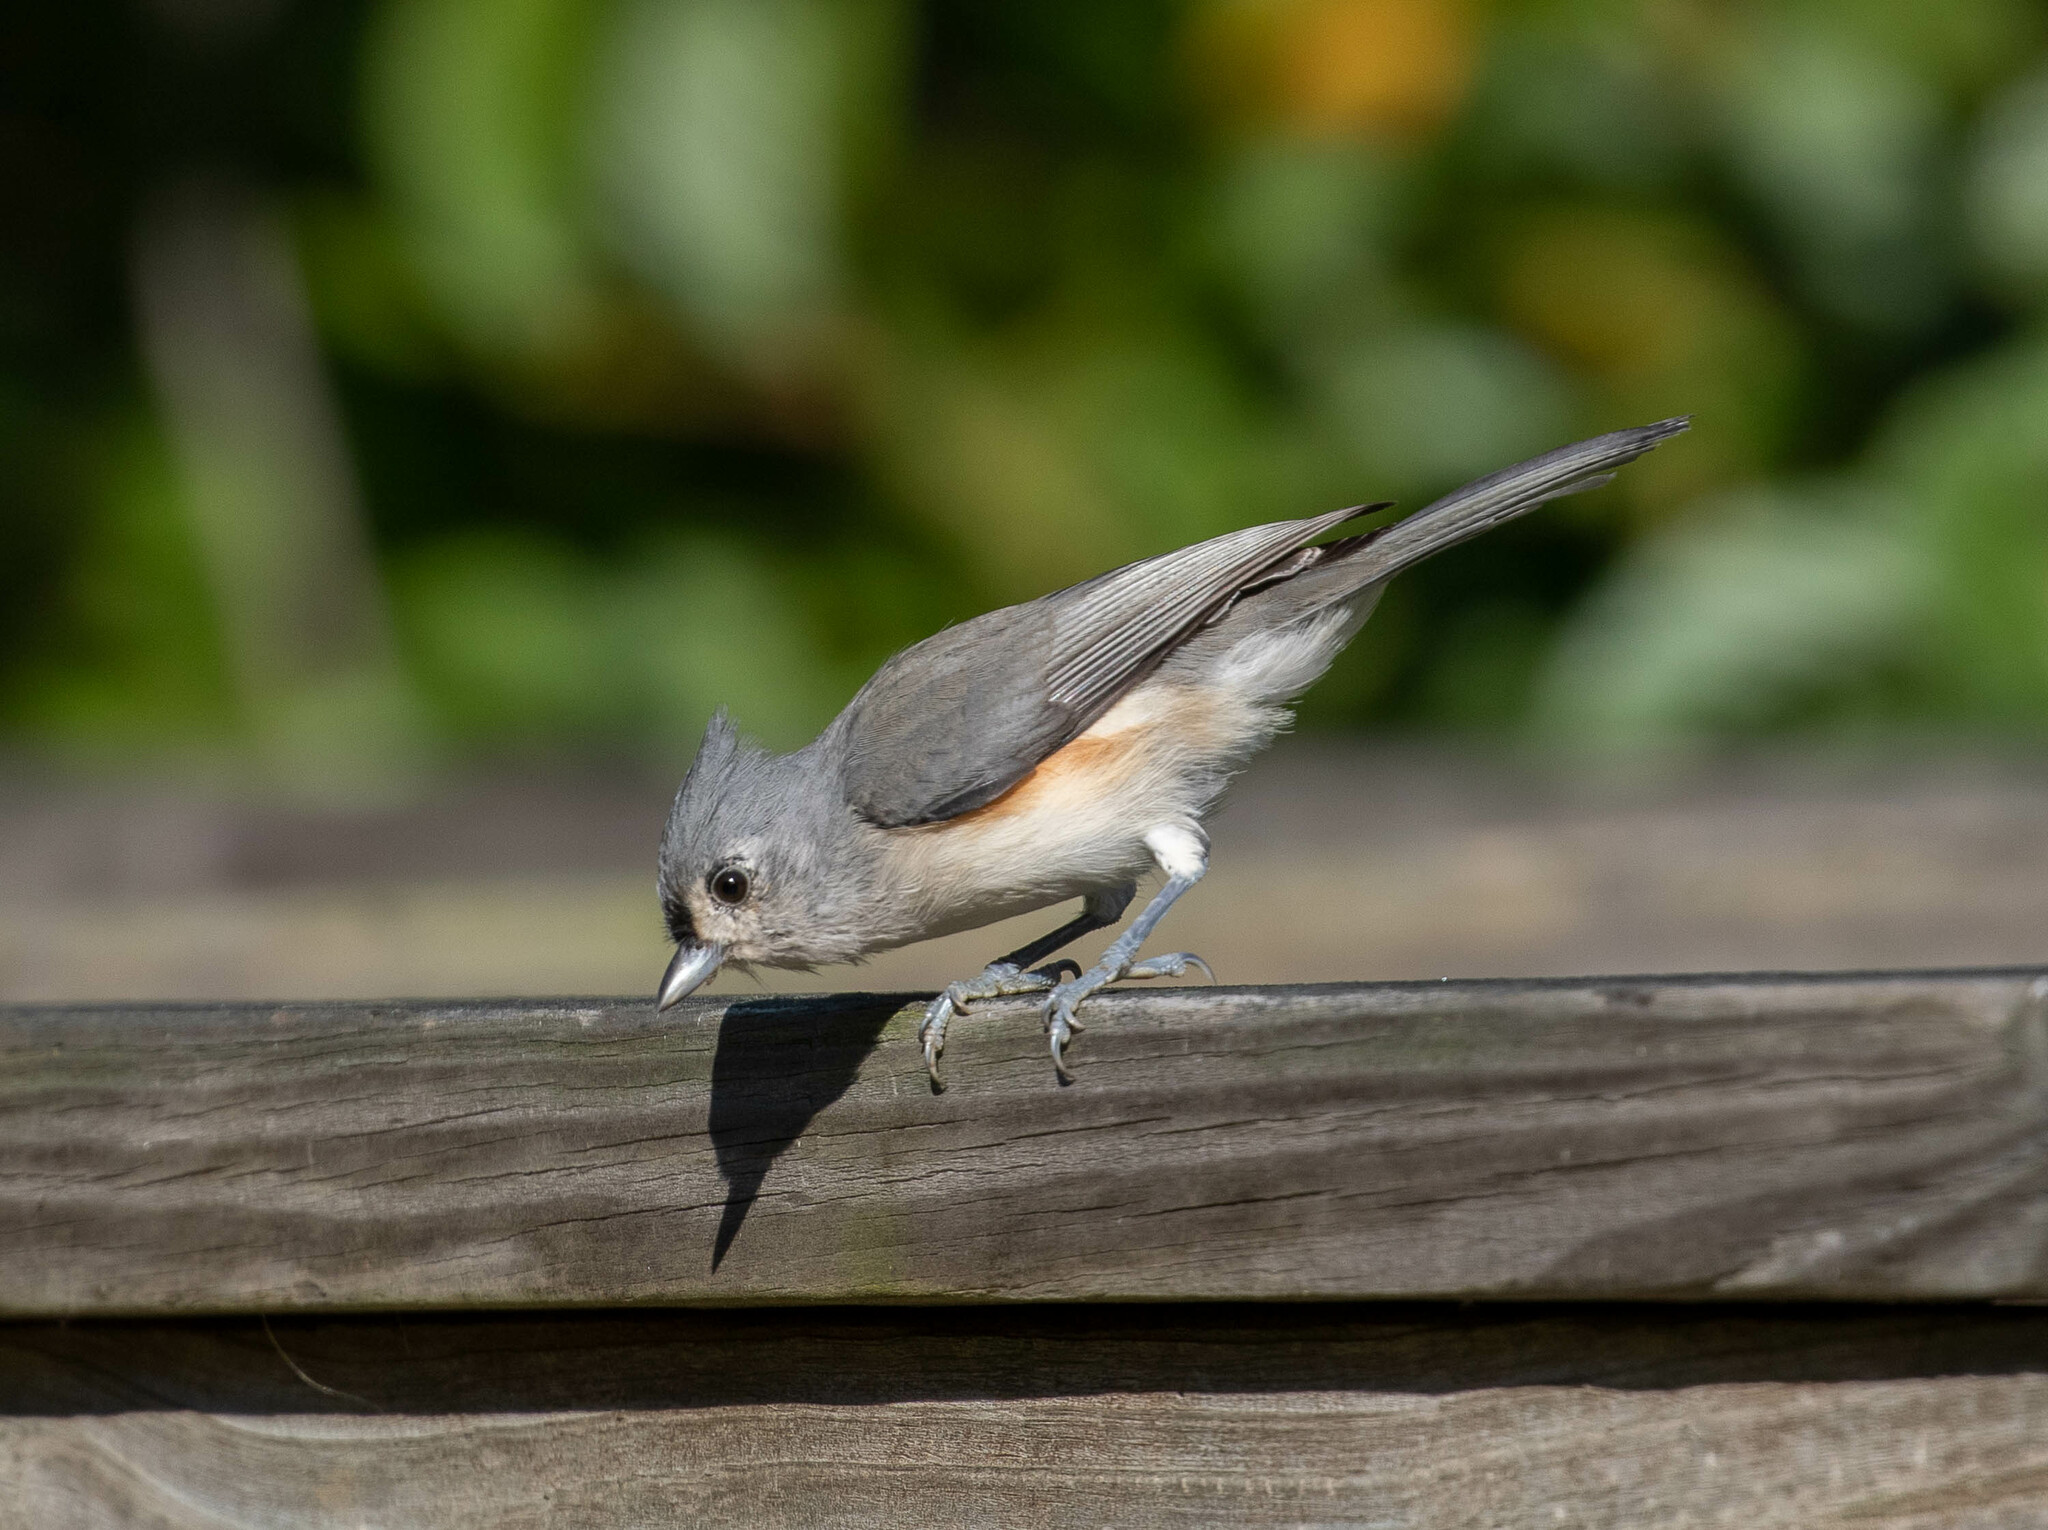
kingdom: Animalia
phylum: Chordata
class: Aves
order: Passeriformes
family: Paridae
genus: Baeolophus
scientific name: Baeolophus bicolor
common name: Tufted titmouse
